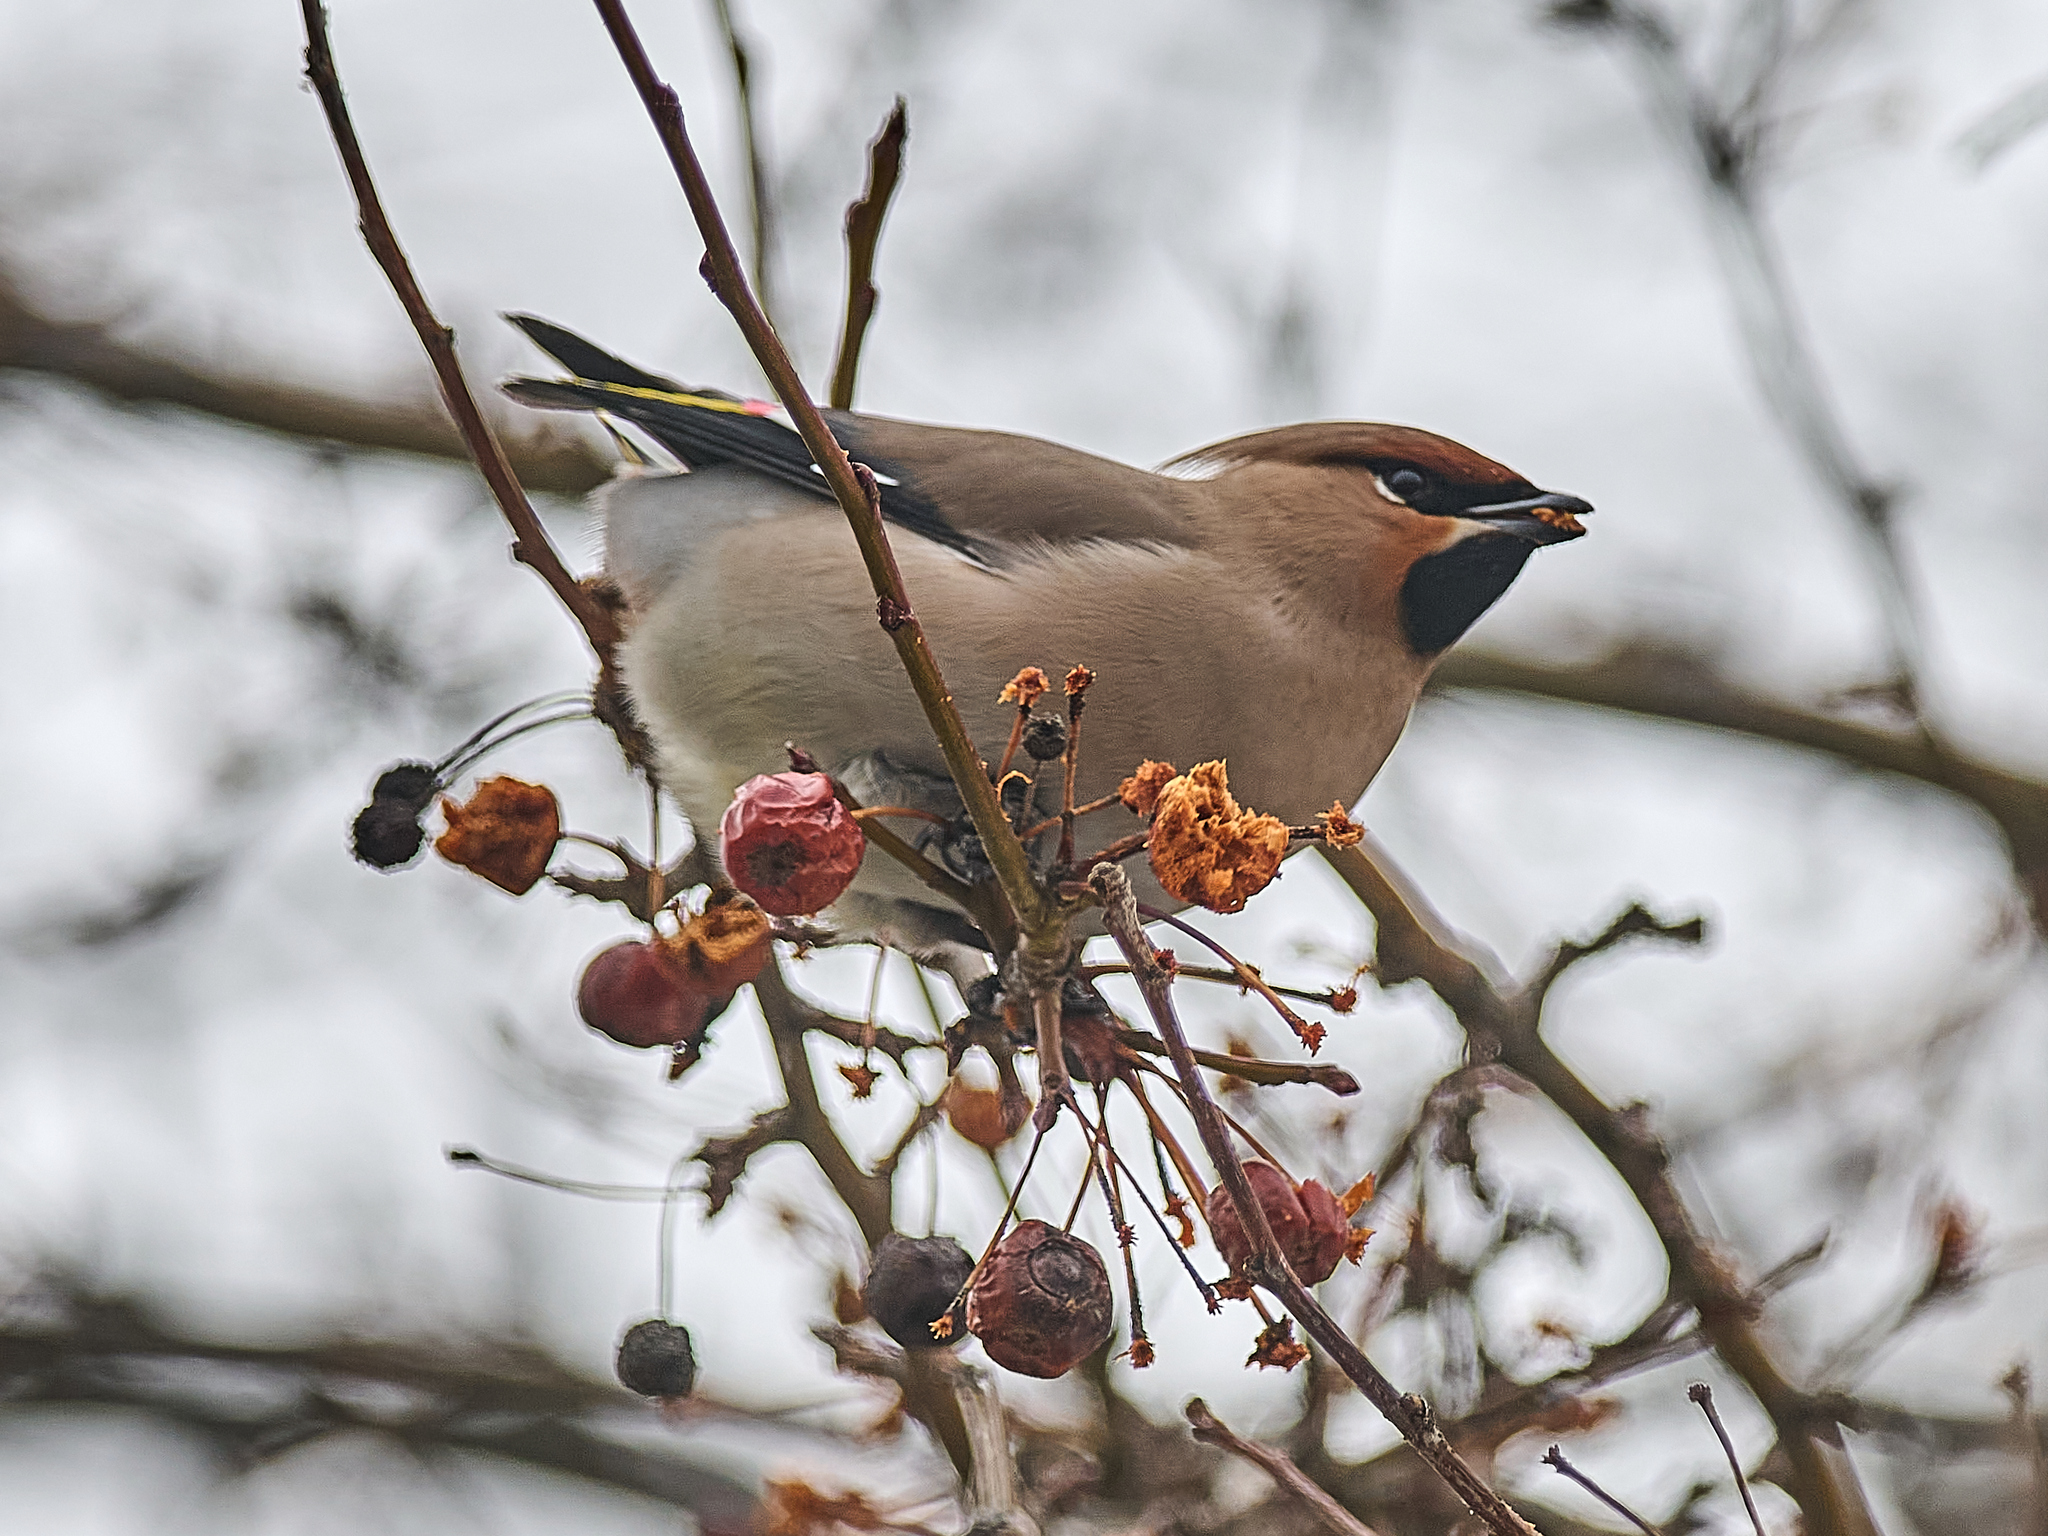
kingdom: Animalia
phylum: Chordata
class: Aves
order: Passeriformes
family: Bombycillidae
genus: Bombycilla
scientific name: Bombycilla garrulus
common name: Bohemian waxwing
